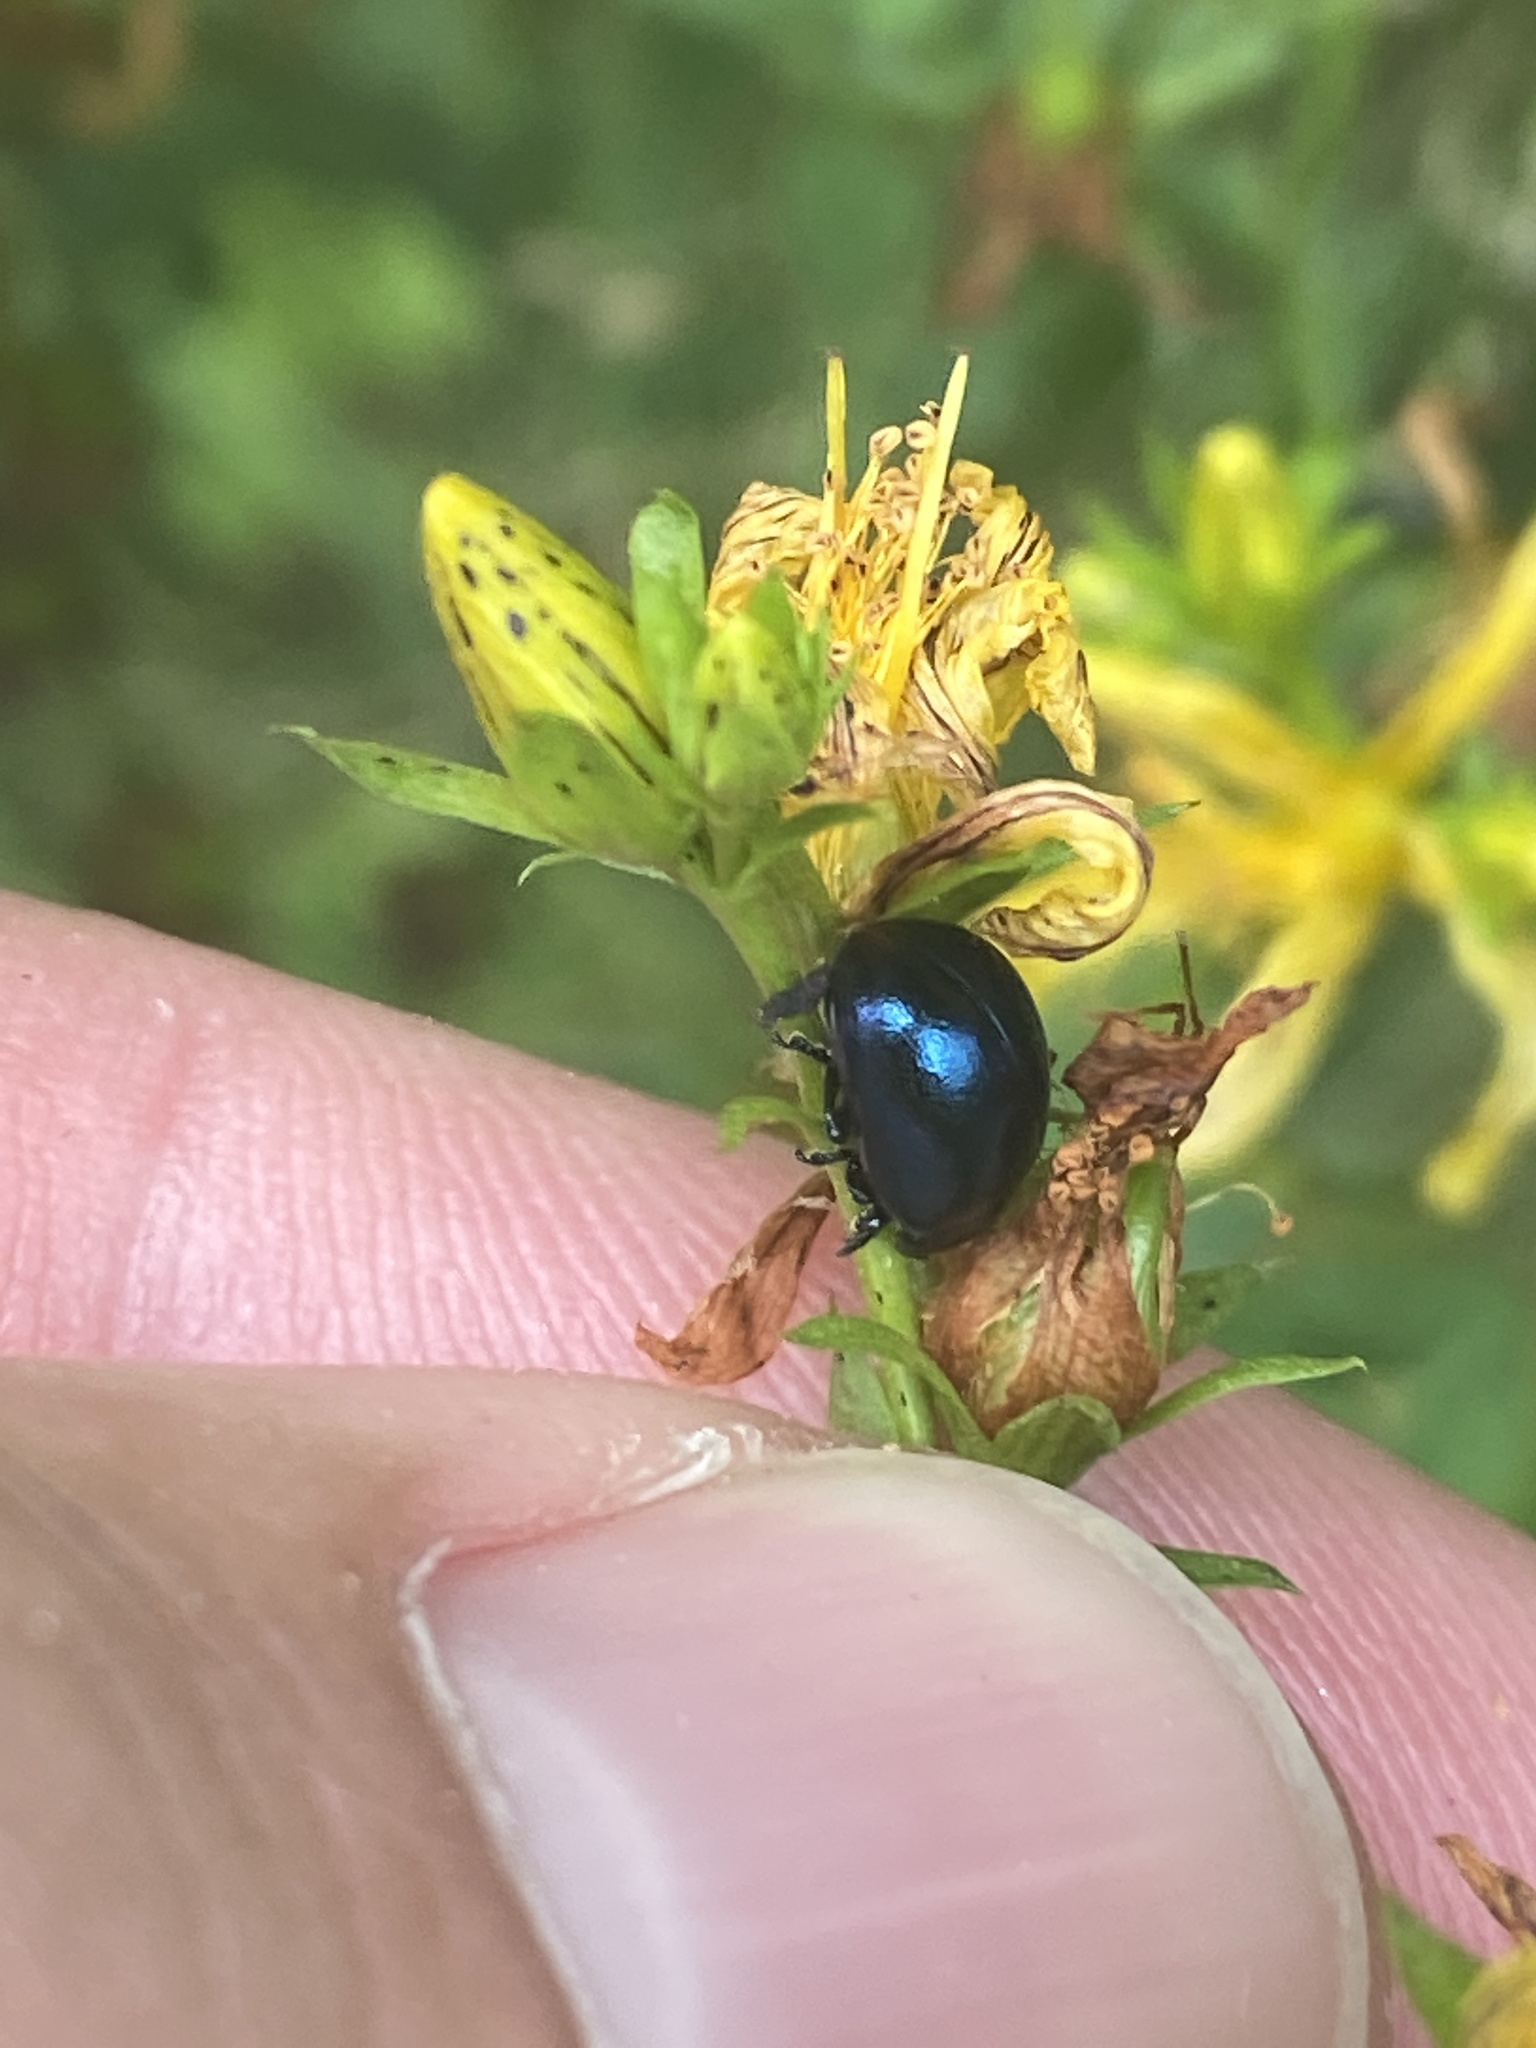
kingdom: Animalia
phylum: Arthropoda
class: Insecta
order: Coleoptera
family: Chrysomelidae
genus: Chrysolina
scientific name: Chrysolina varians
